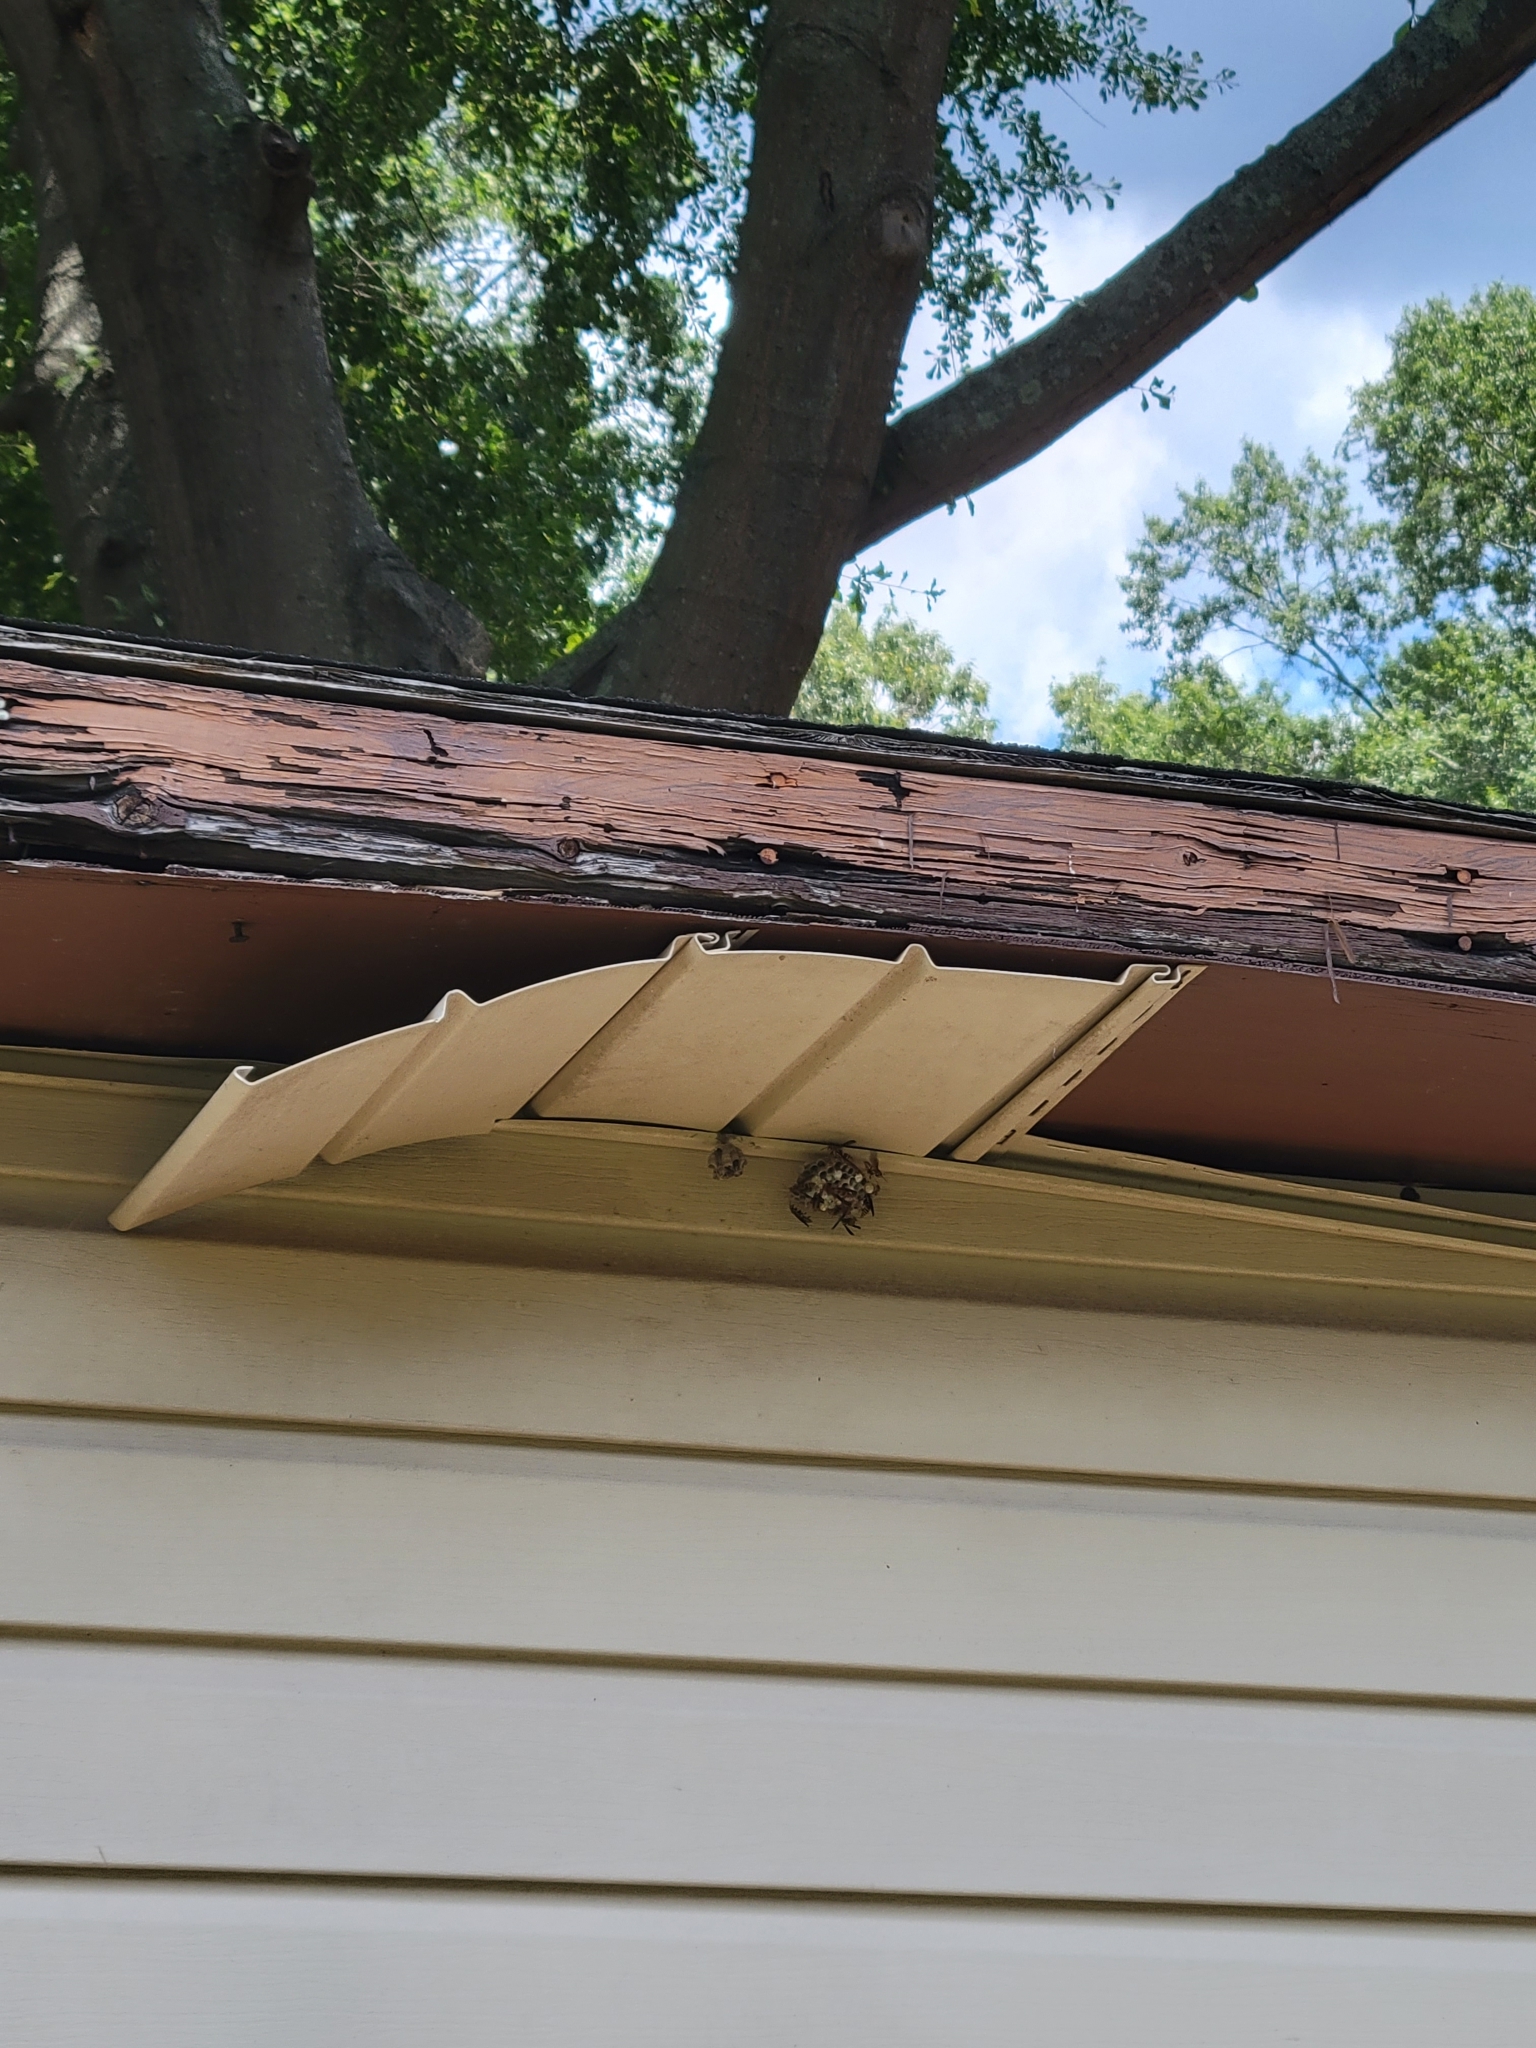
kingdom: Animalia
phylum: Arthropoda
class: Insecta
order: Hymenoptera
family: Eumenidae
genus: Polistes
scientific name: Polistes exclamans
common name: Paper wasp
